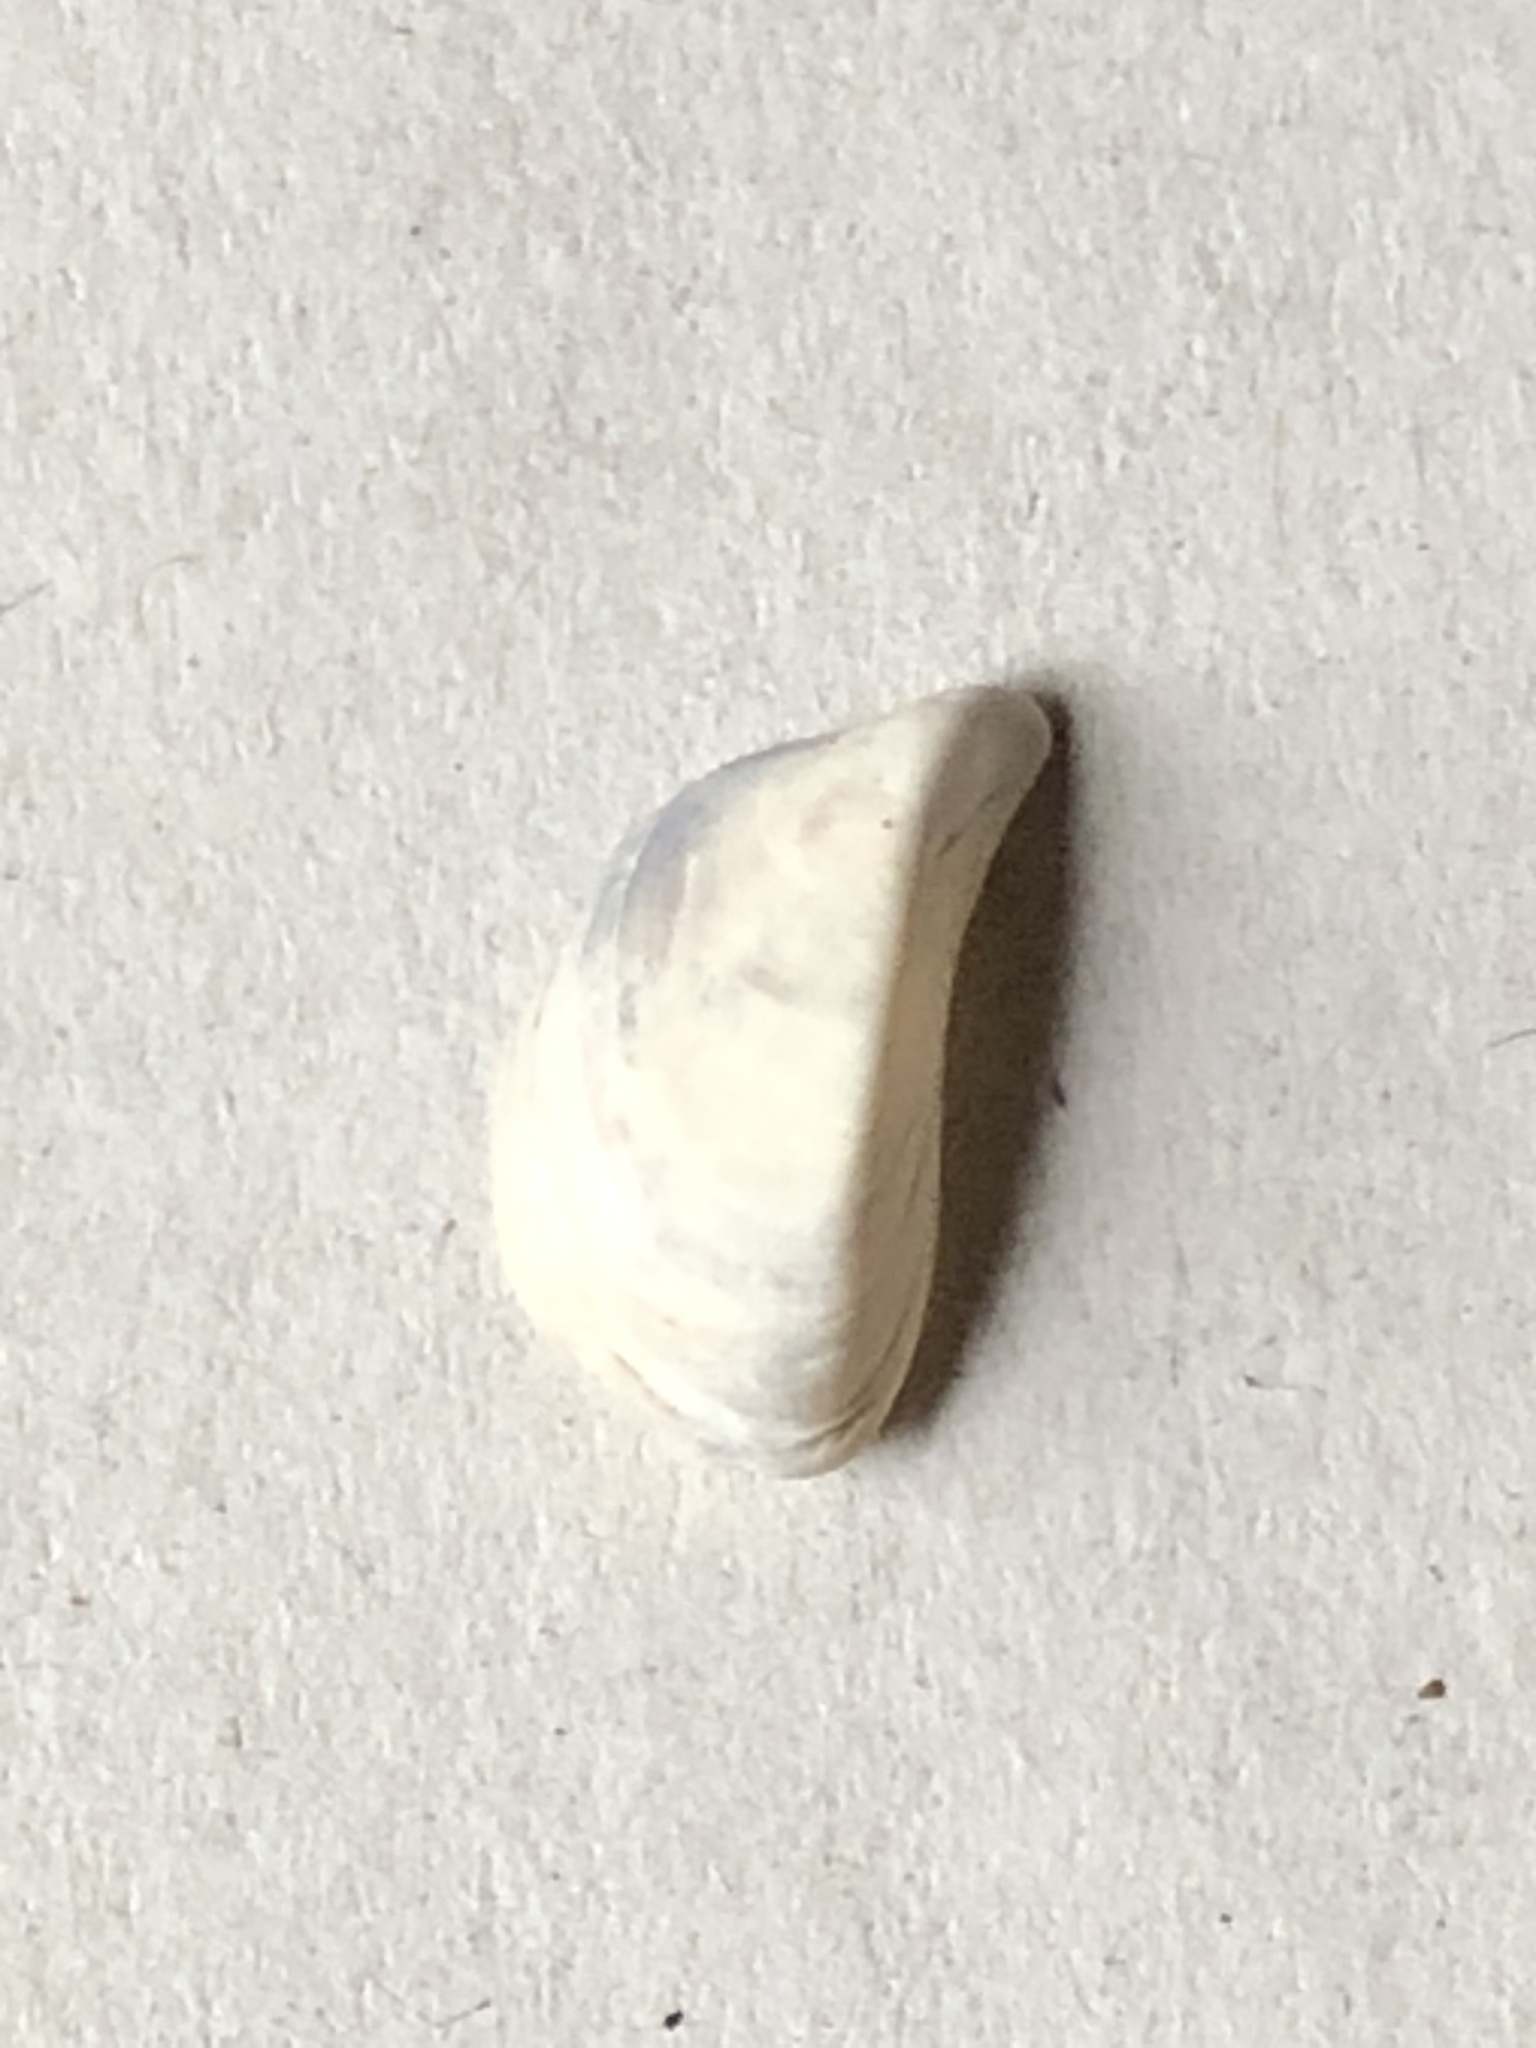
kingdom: Animalia
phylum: Mollusca
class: Bivalvia
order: Myida
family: Dreissenidae
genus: Dreissena
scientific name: Dreissena polymorpha
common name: Zebra mussel
